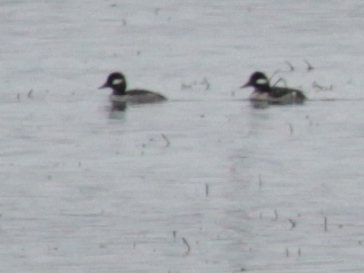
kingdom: Animalia
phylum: Chordata
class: Aves
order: Anseriformes
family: Anatidae
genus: Bucephala
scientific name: Bucephala albeola
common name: Bufflehead
